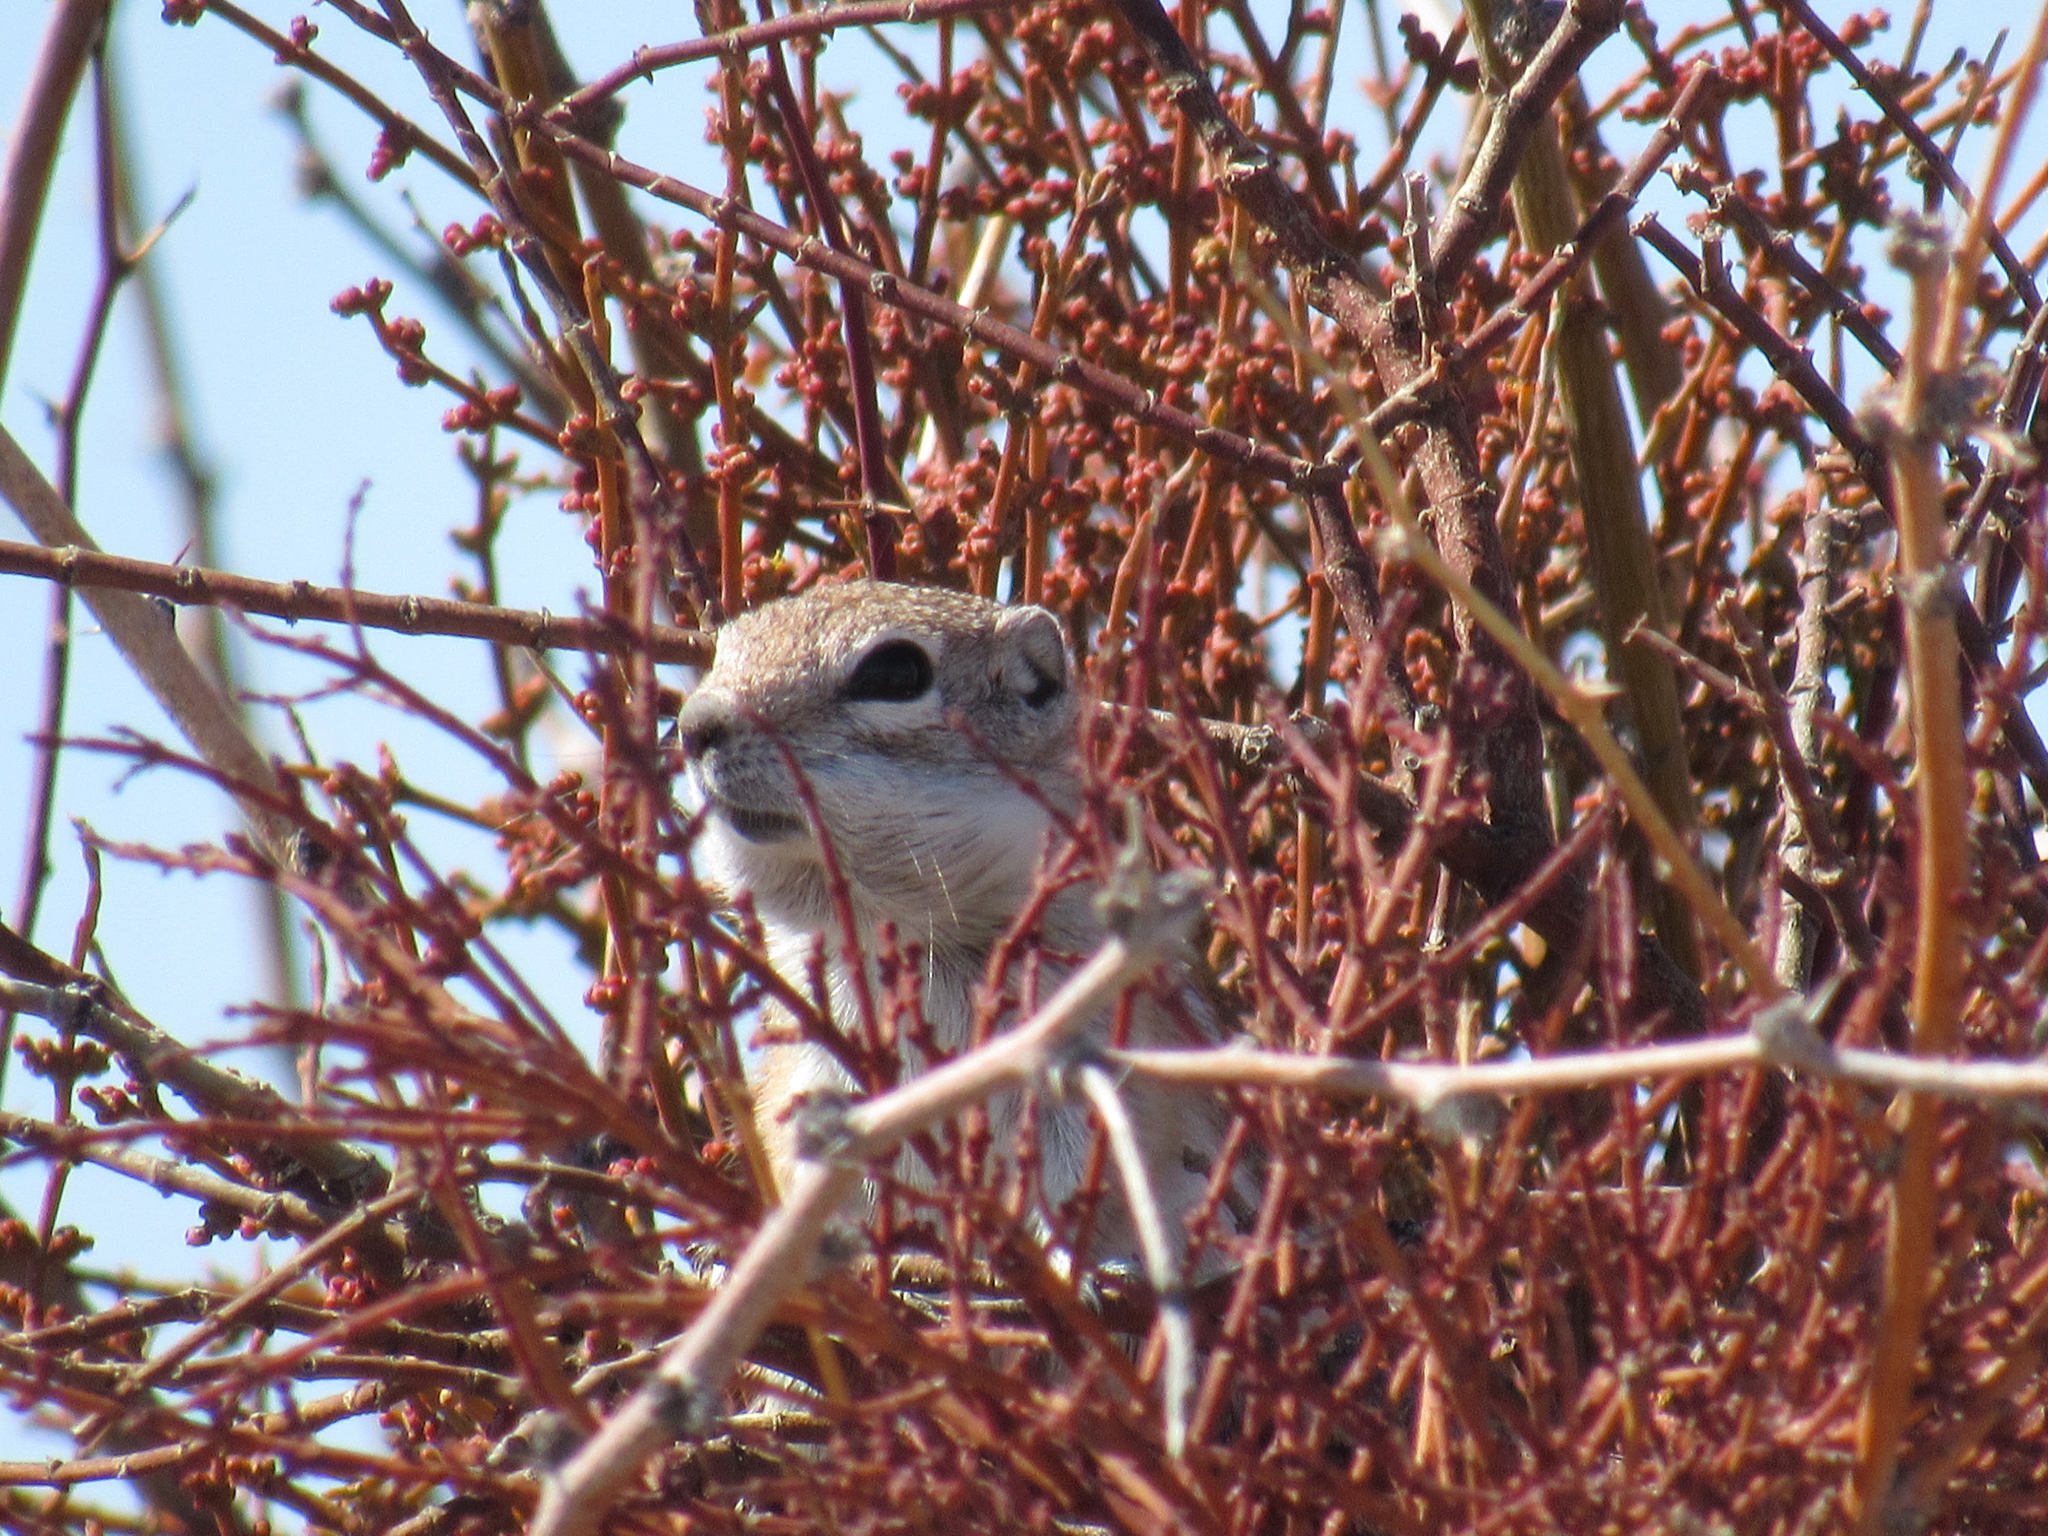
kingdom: Animalia
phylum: Chordata
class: Mammalia
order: Rodentia
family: Sciuridae
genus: Ammospermophilus
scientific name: Ammospermophilus leucurus
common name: White-tailed antelope squirrel
